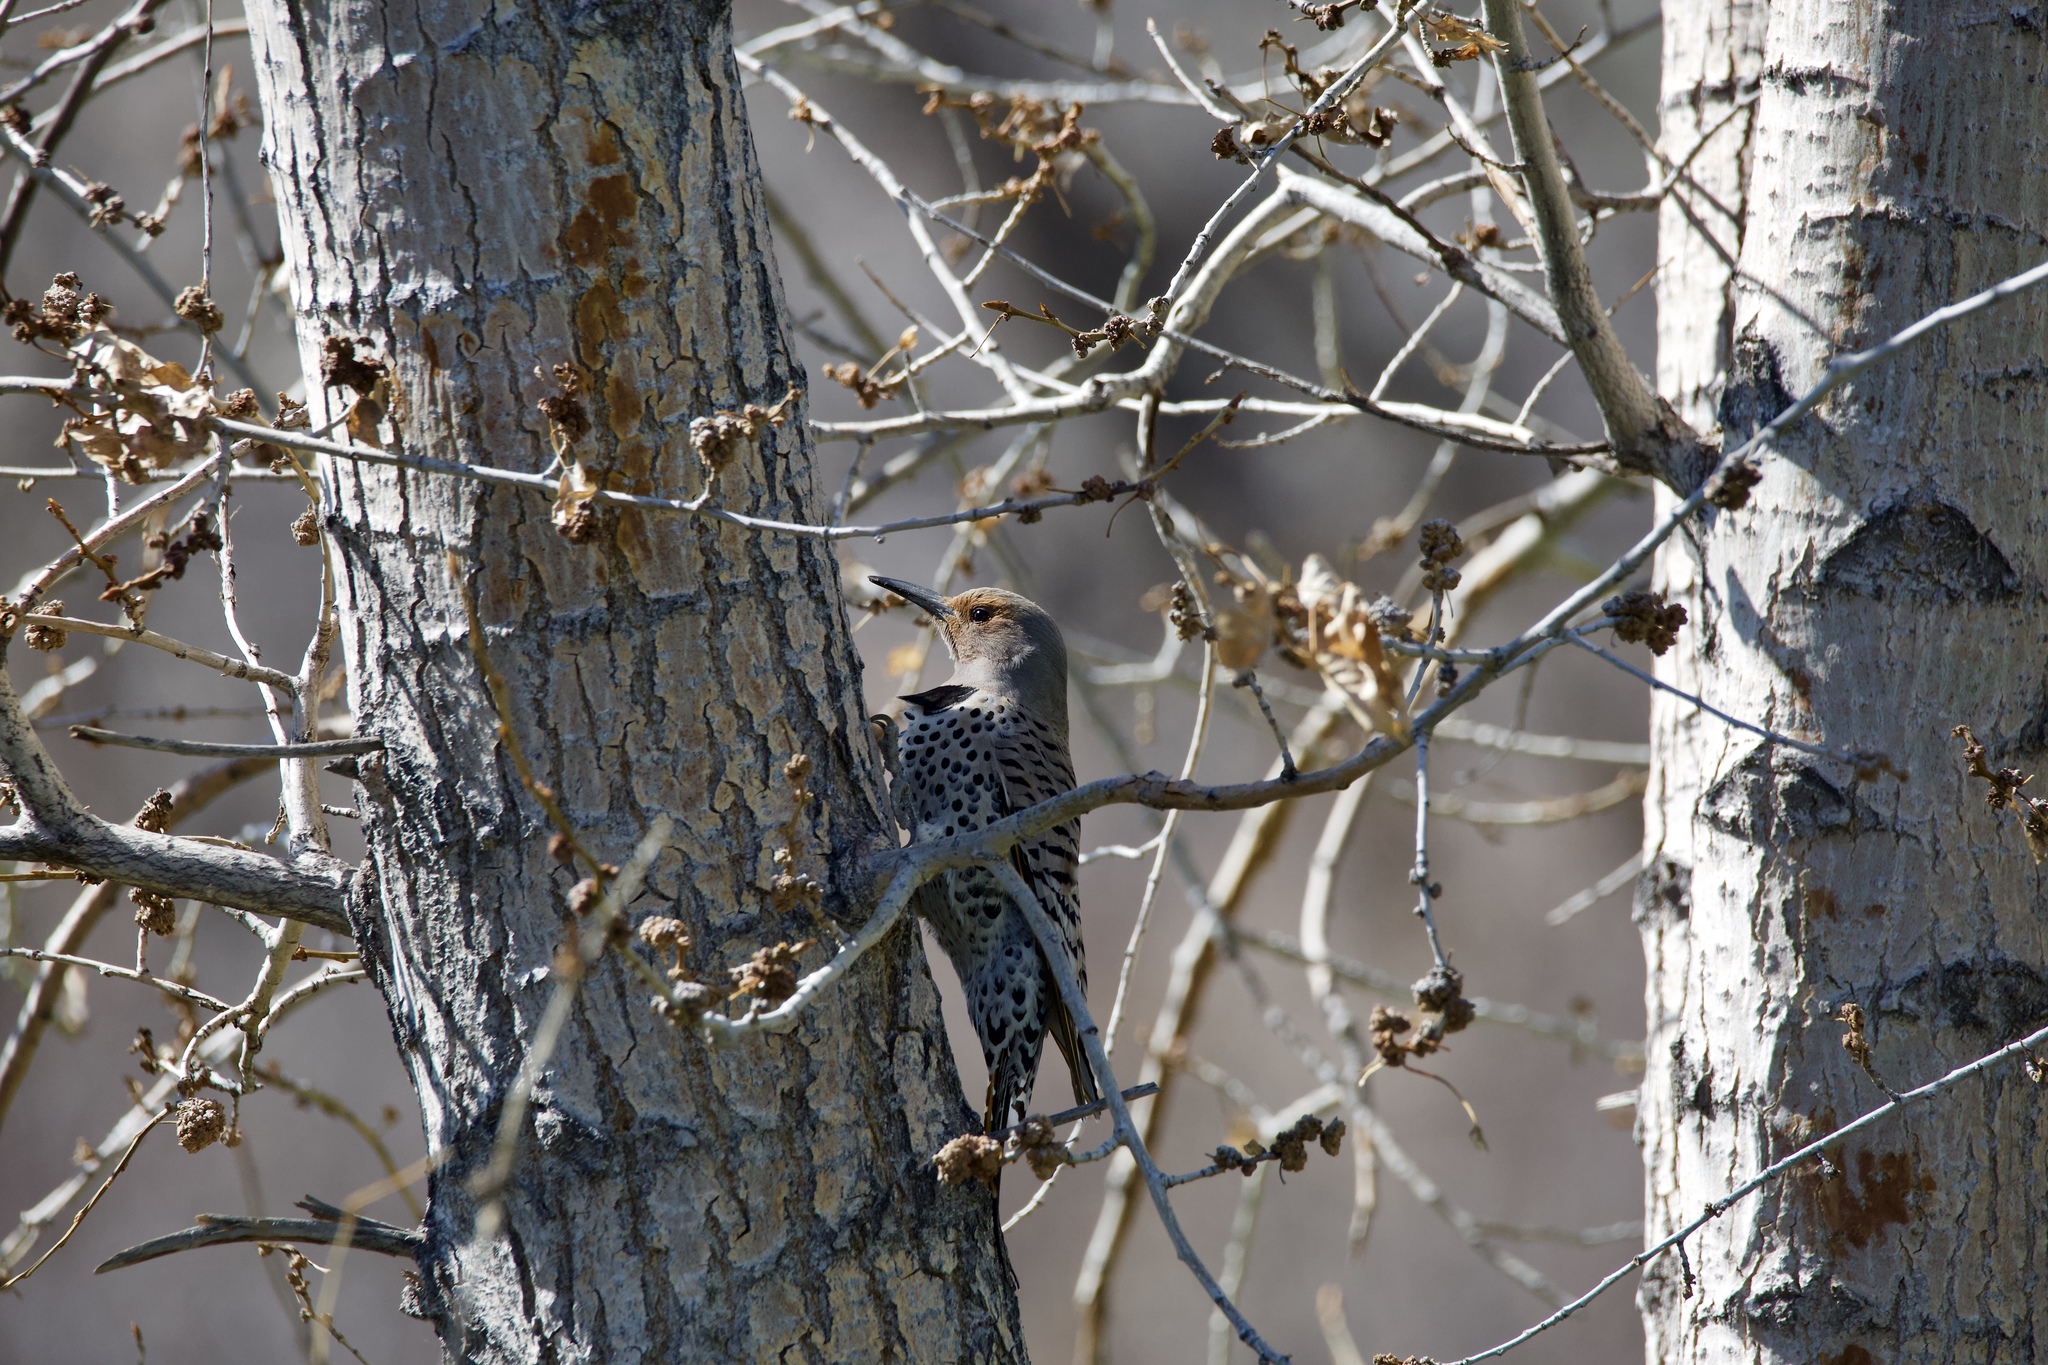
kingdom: Animalia
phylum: Chordata
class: Aves
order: Piciformes
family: Picidae
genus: Colaptes
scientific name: Colaptes auratus
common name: Northern flicker
